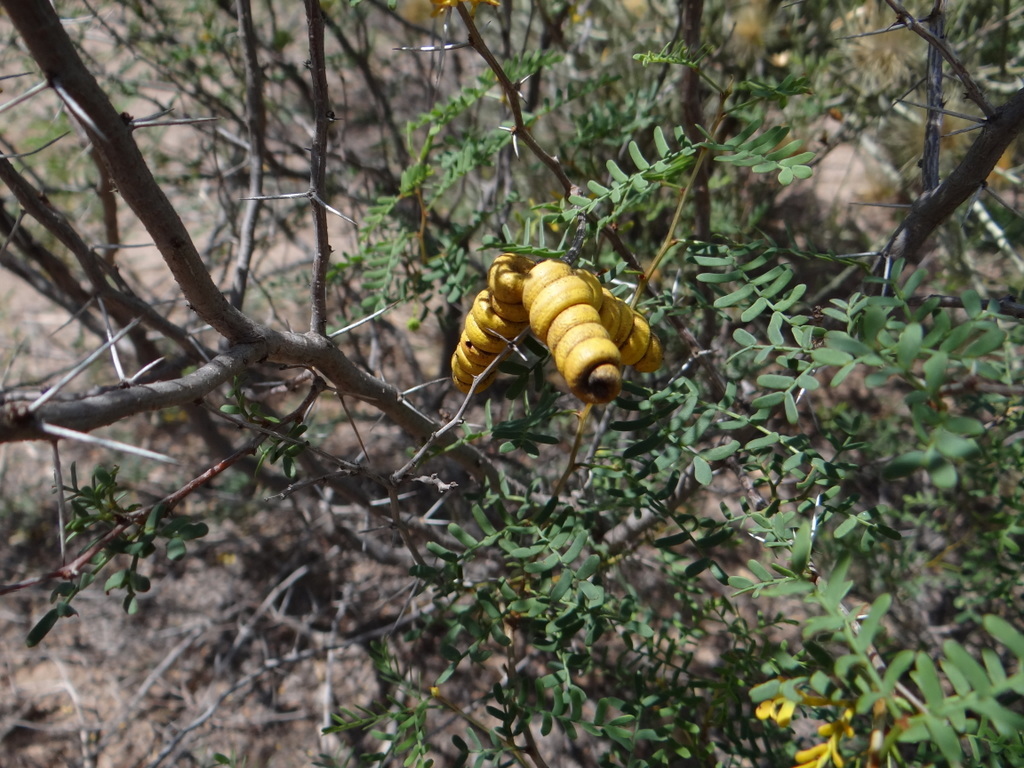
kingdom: Plantae
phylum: Tracheophyta
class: Magnoliopsida
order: Fabales
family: Fabaceae
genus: Prosopis
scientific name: Prosopis strombulifera
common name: Creeping mesquite
